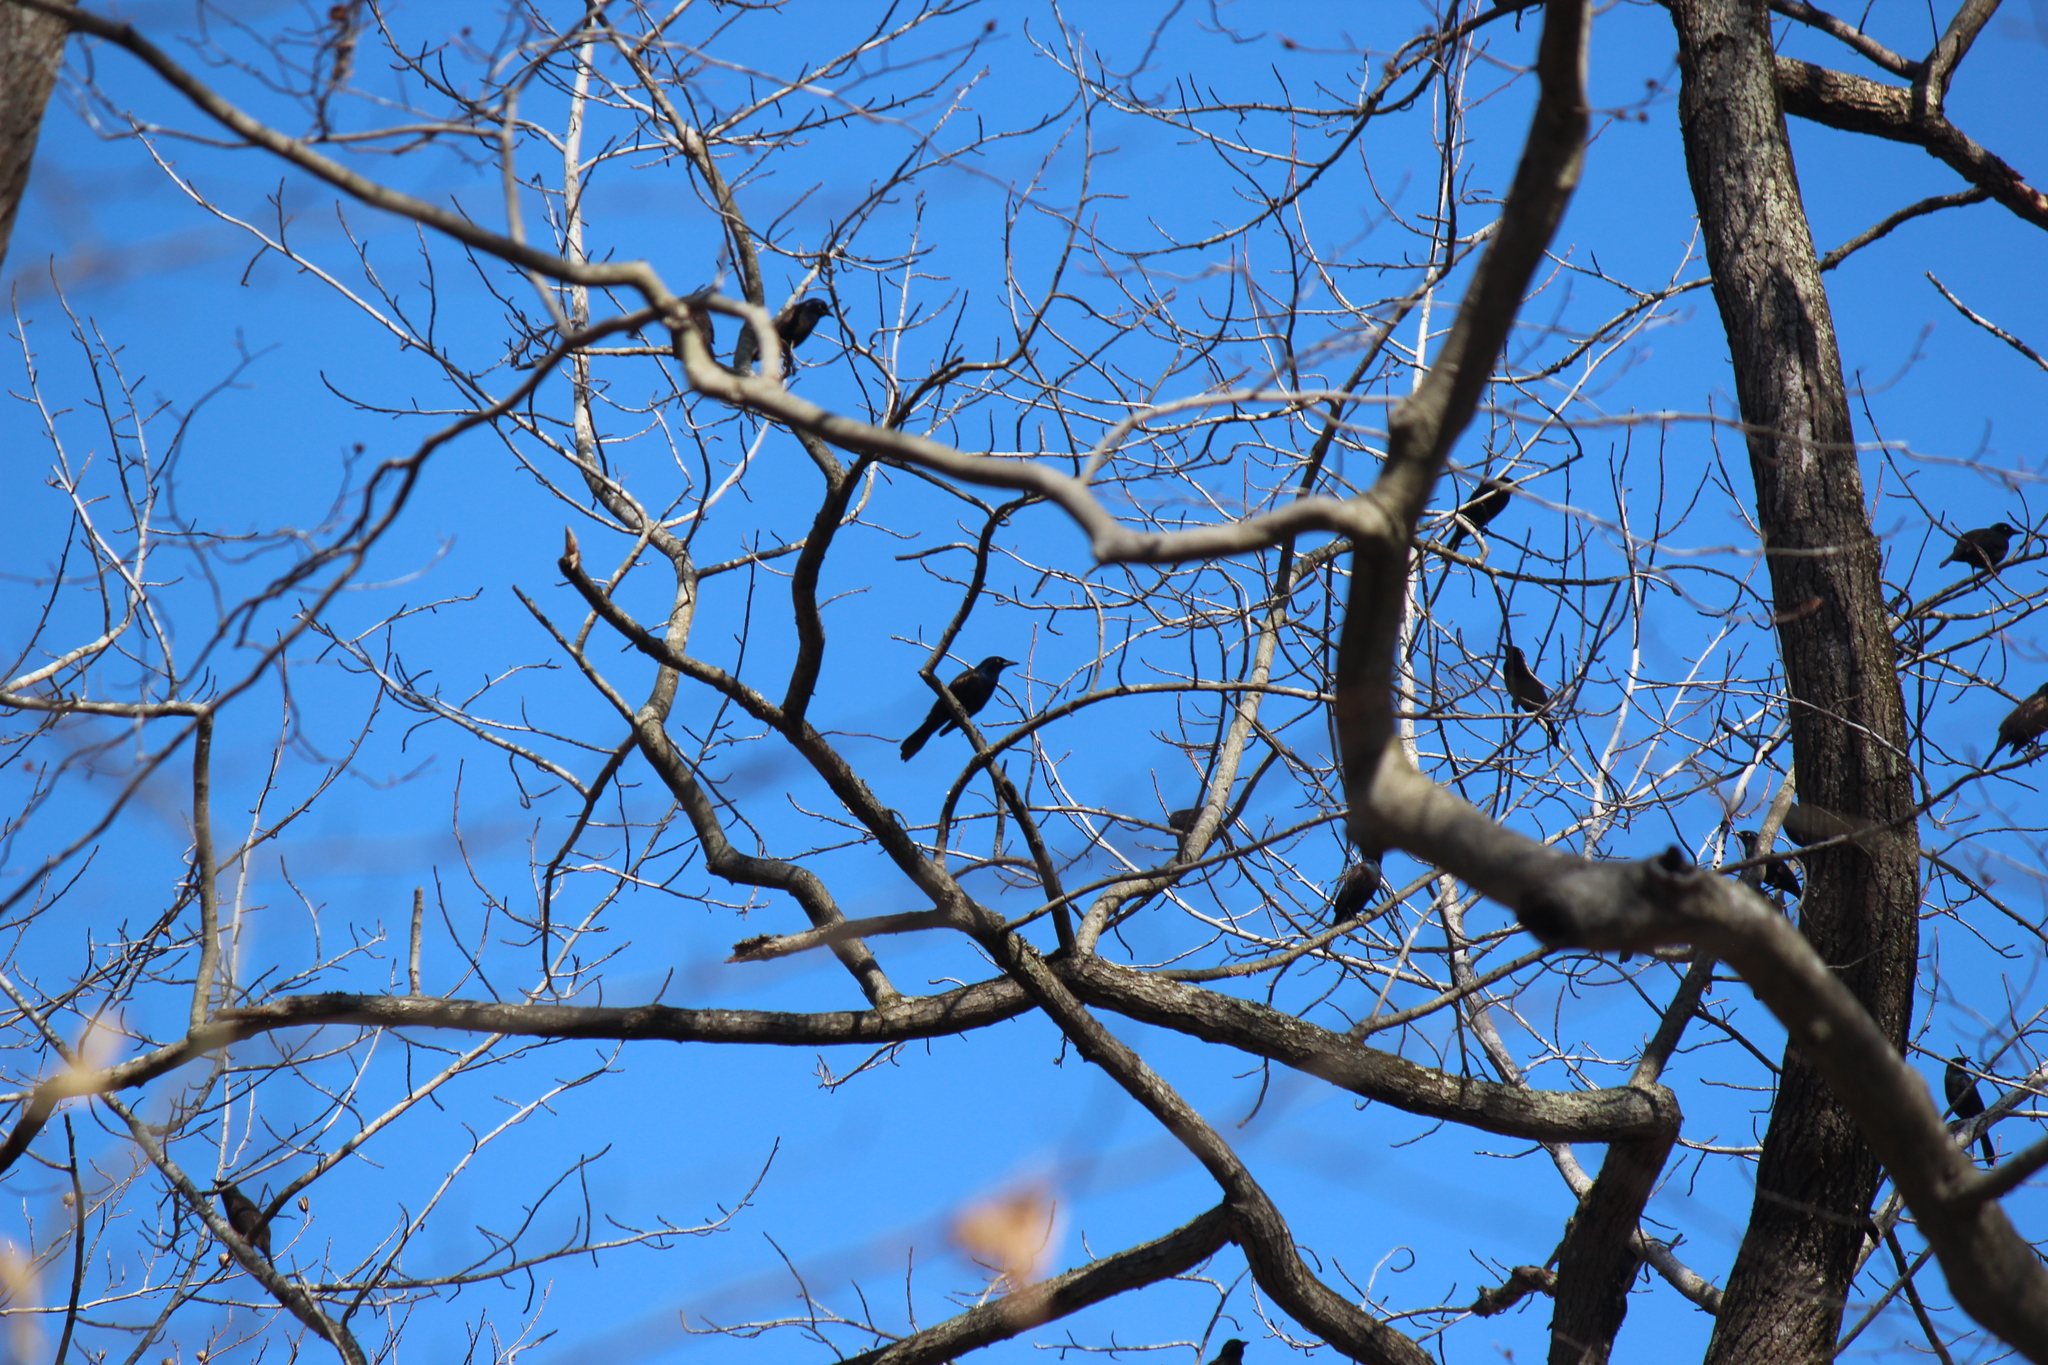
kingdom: Animalia
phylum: Chordata
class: Aves
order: Passeriformes
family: Icteridae
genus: Quiscalus
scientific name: Quiscalus quiscula
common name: Common grackle
